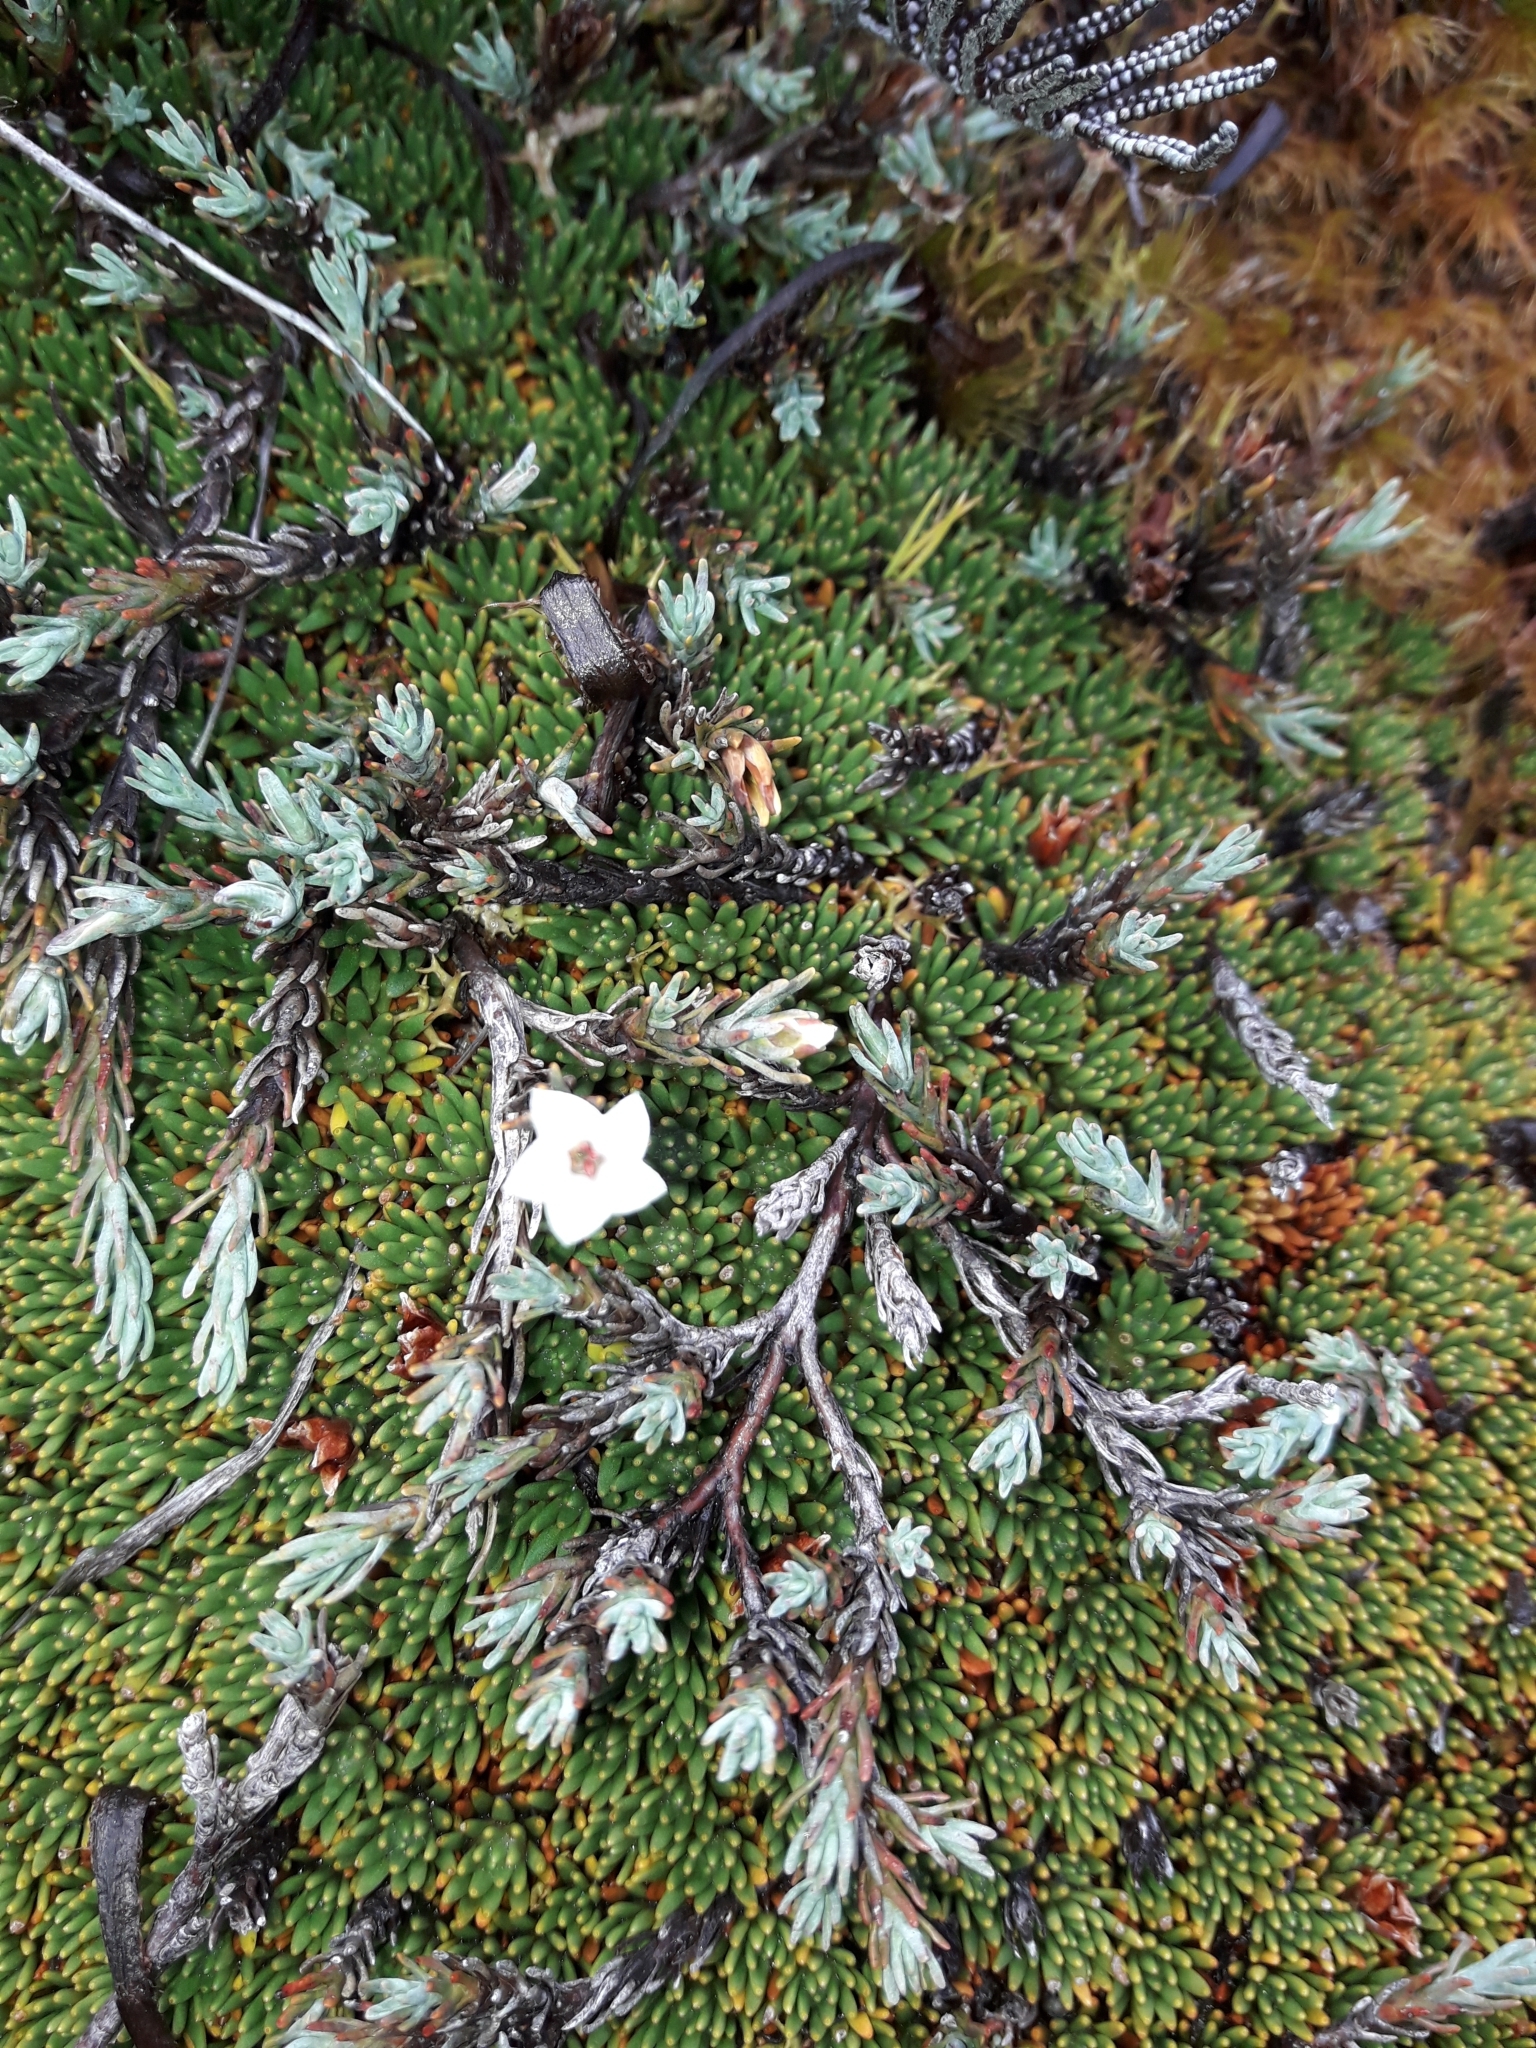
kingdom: Plantae
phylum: Tracheophyta
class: Magnoliopsida
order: Ericales
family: Ericaceae
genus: Dracophyllum
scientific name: Dracophyllum prostratum
